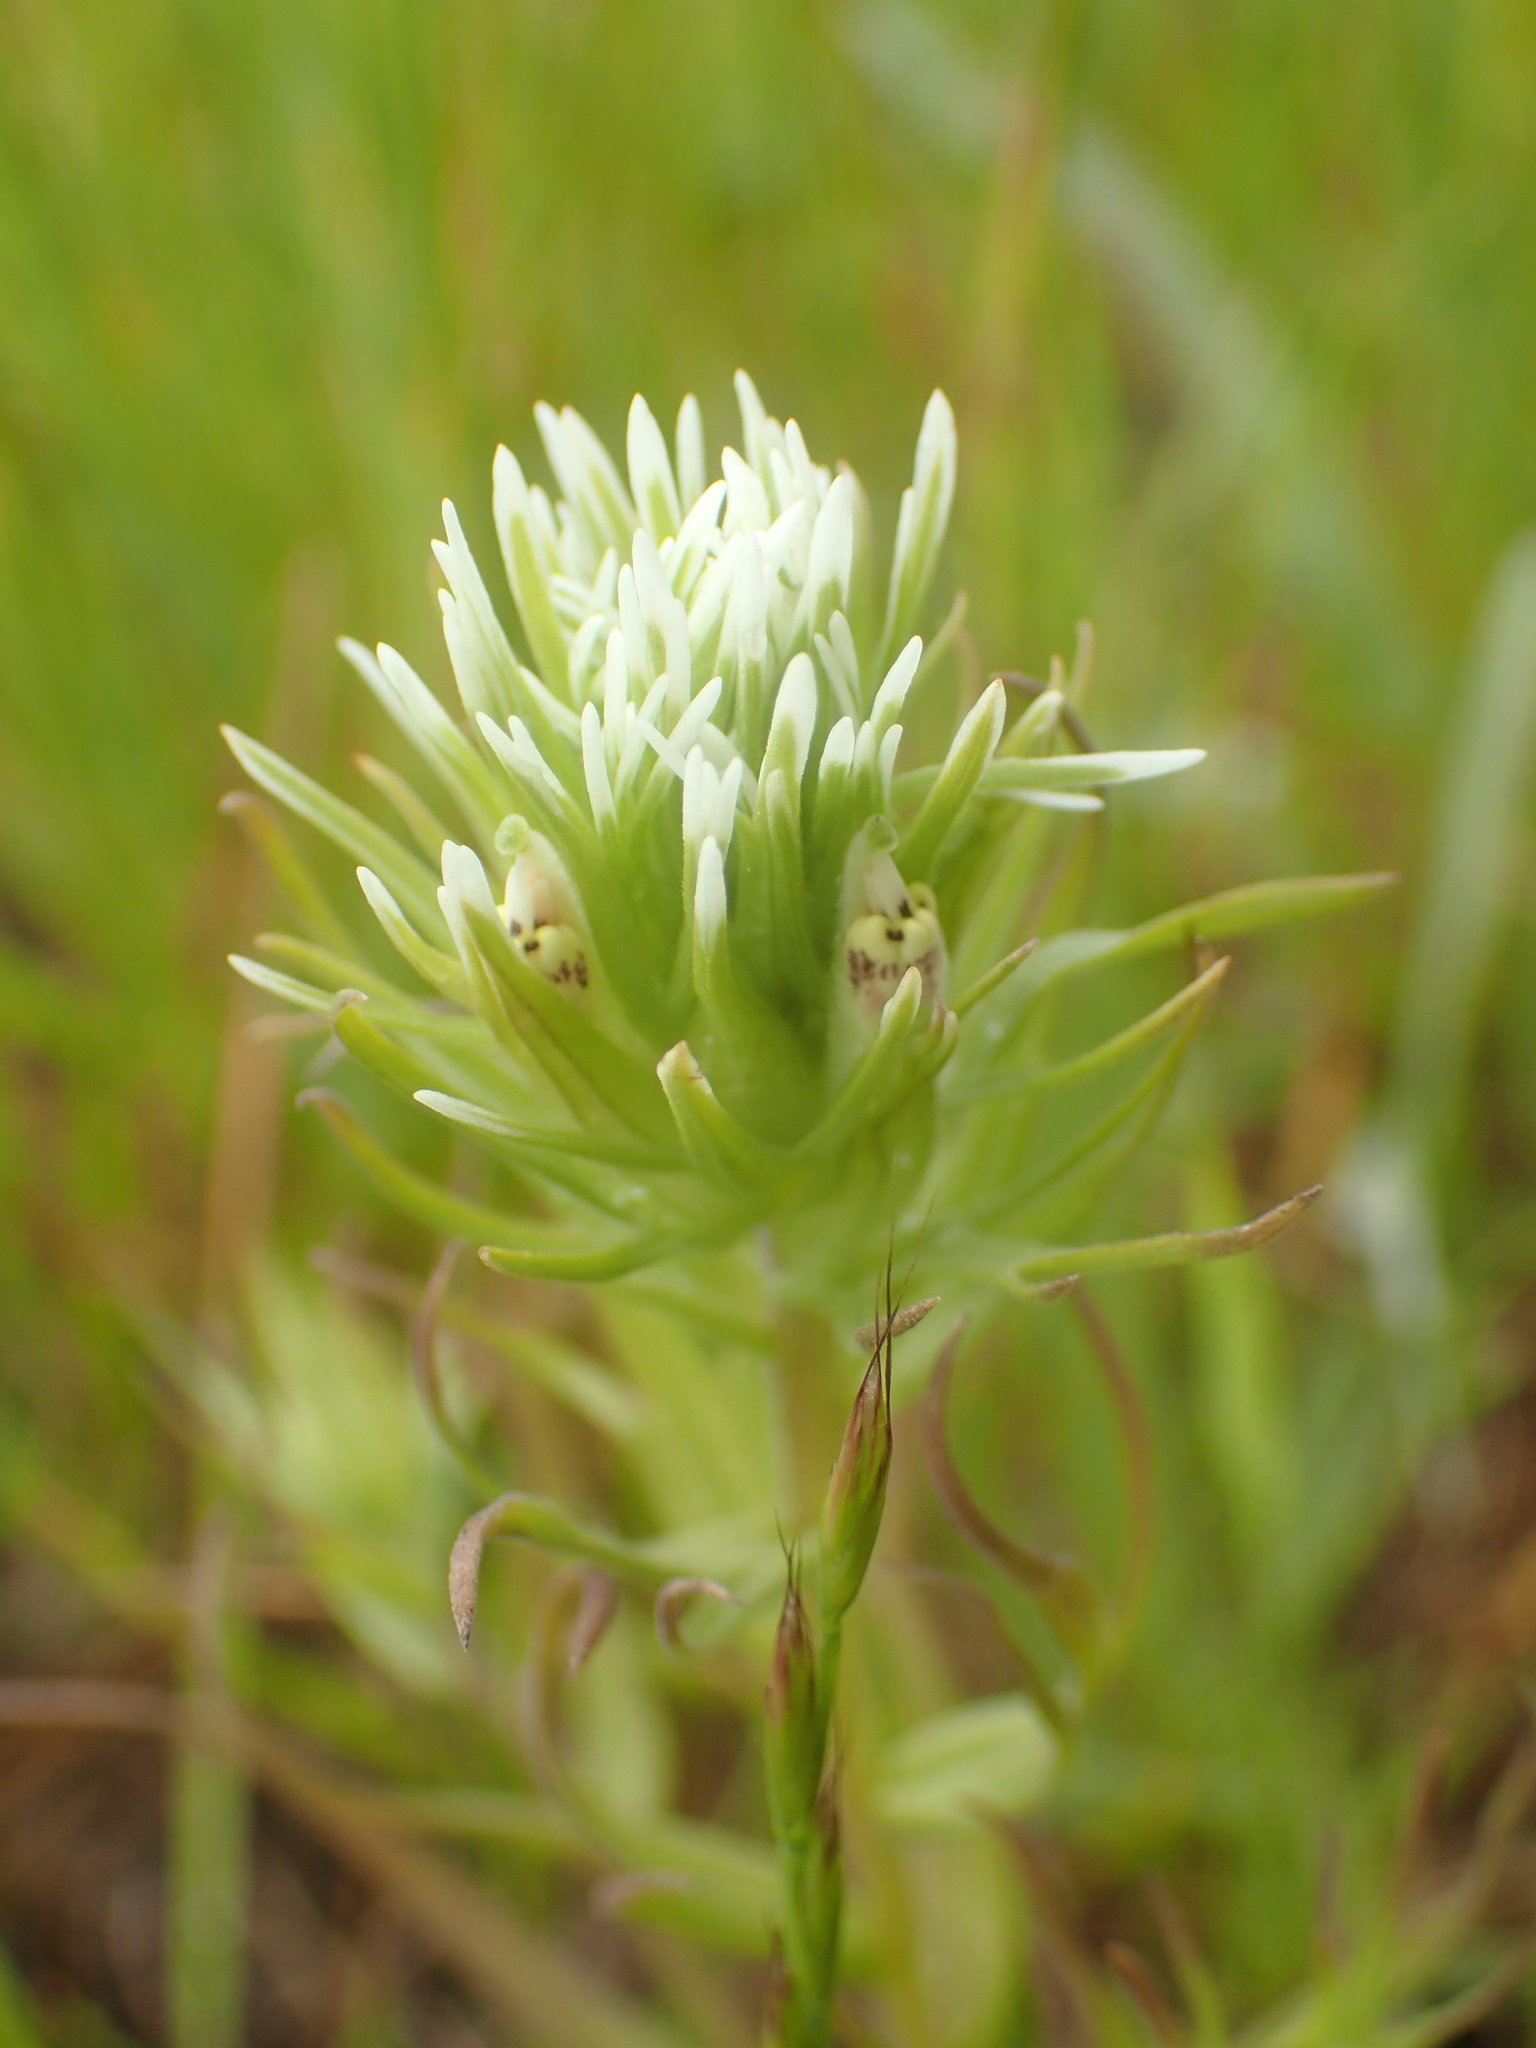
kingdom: Plantae
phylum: Tracheophyta
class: Magnoliopsida
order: Lamiales
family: Orobanchaceae
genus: Castilleja
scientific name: Castilleja attenuata
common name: Valley tassels
